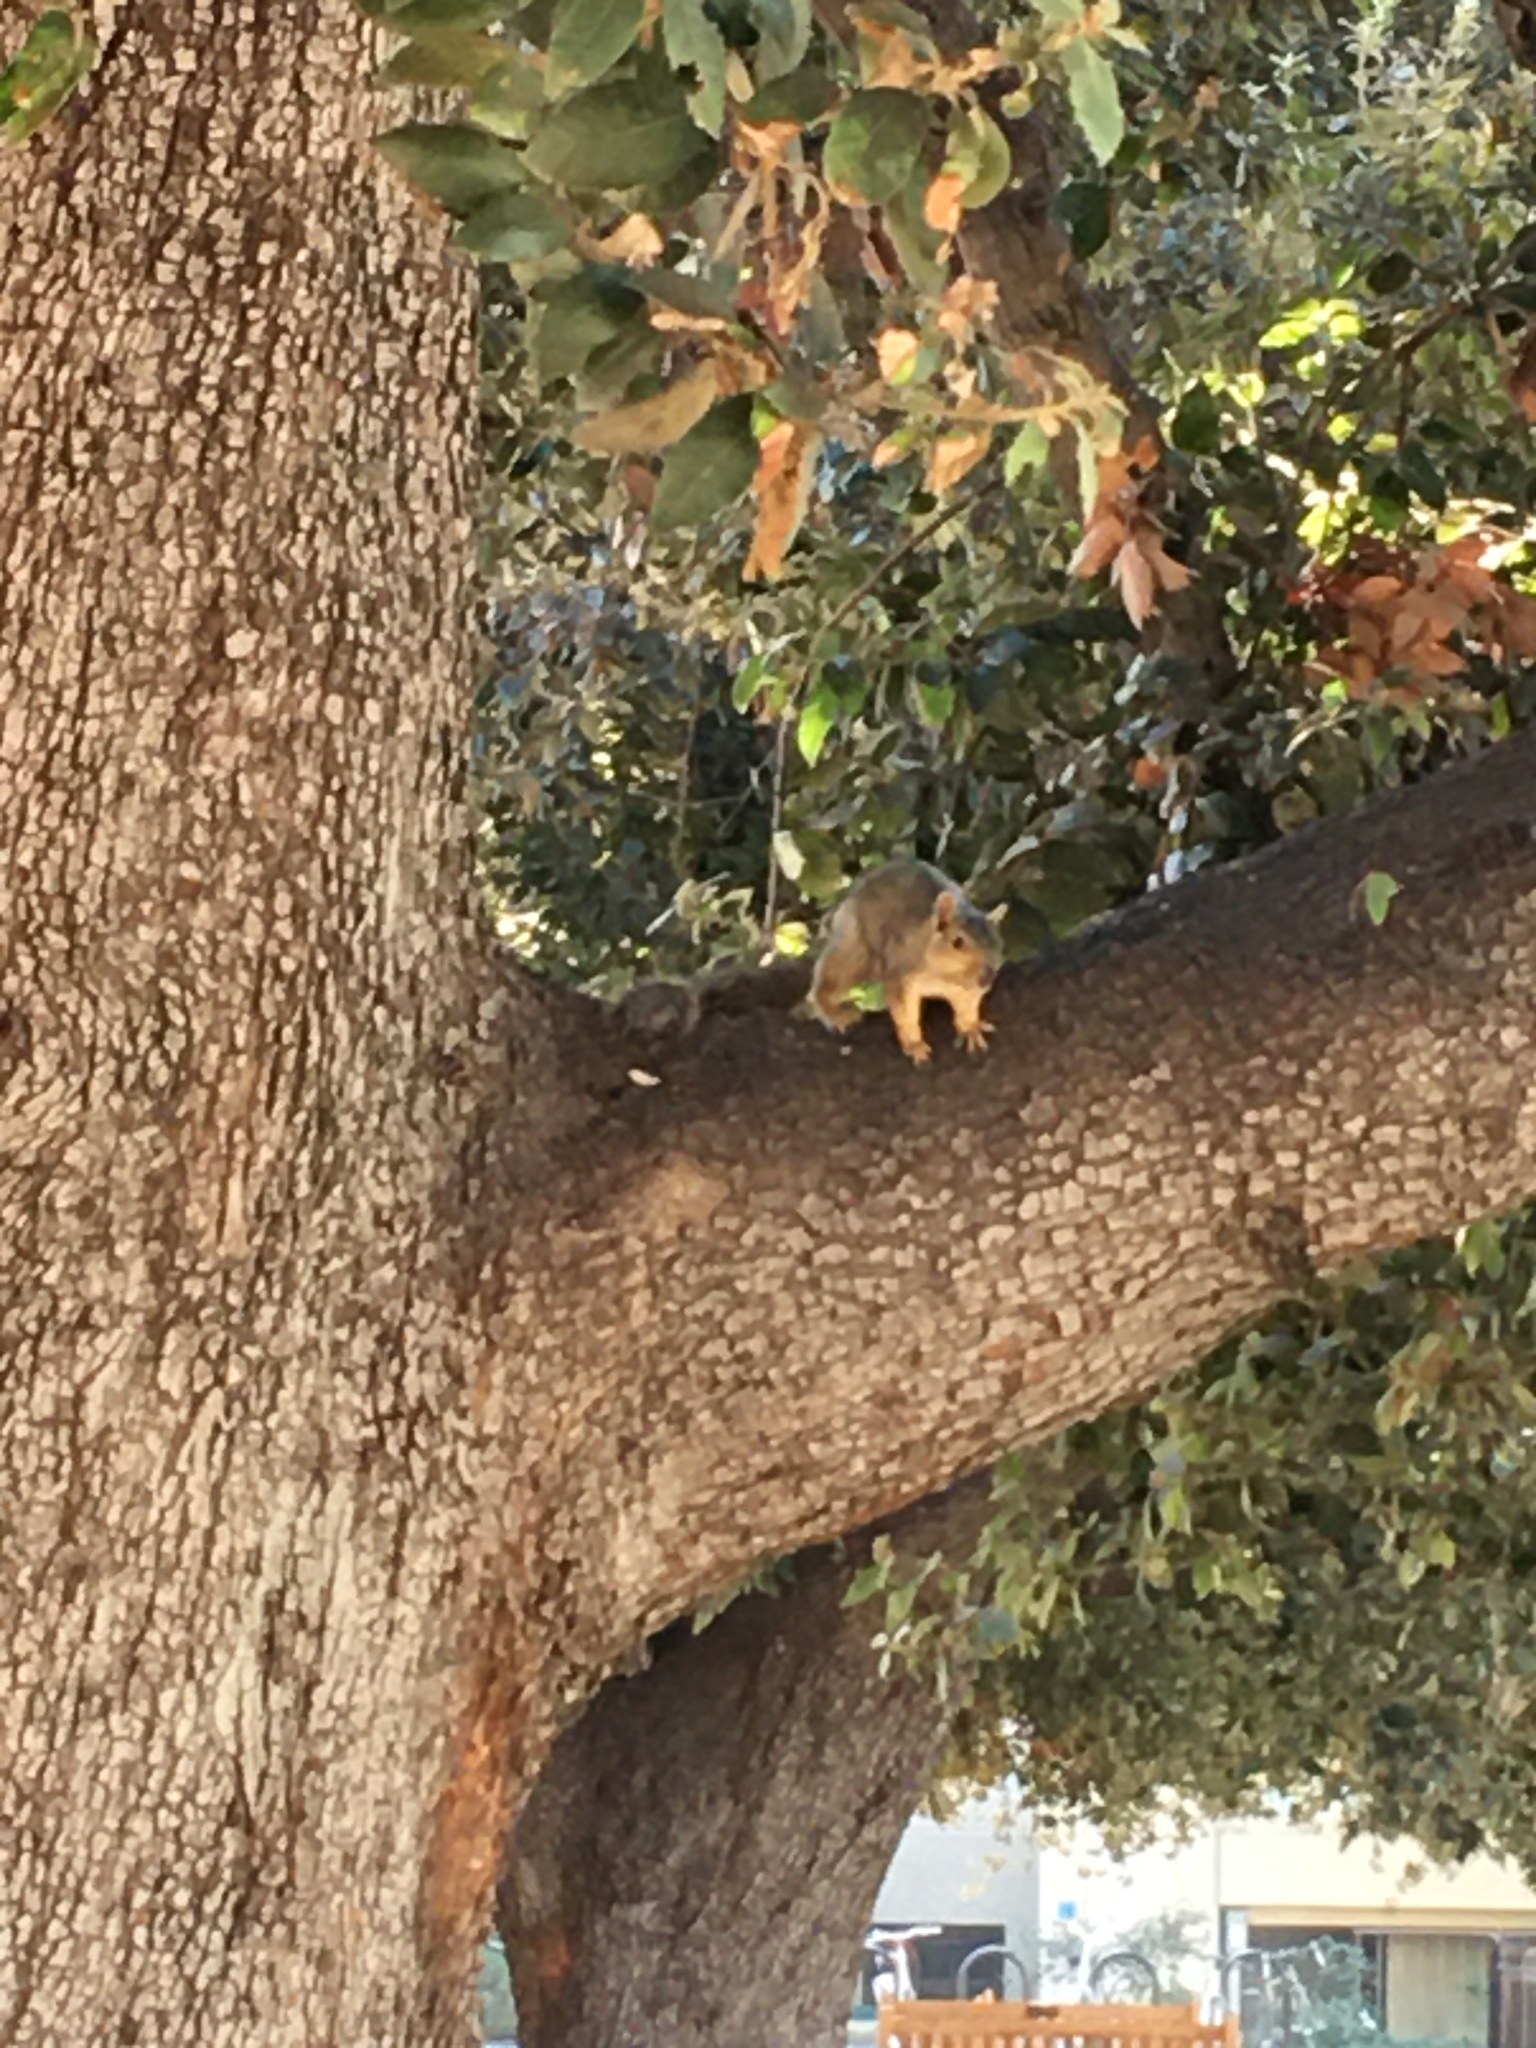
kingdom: Animalia
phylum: Chordata
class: Mammalia
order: Rodentia
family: Sciuridae
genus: Sciurus
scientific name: Sciurus niger
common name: Fox squirrel
